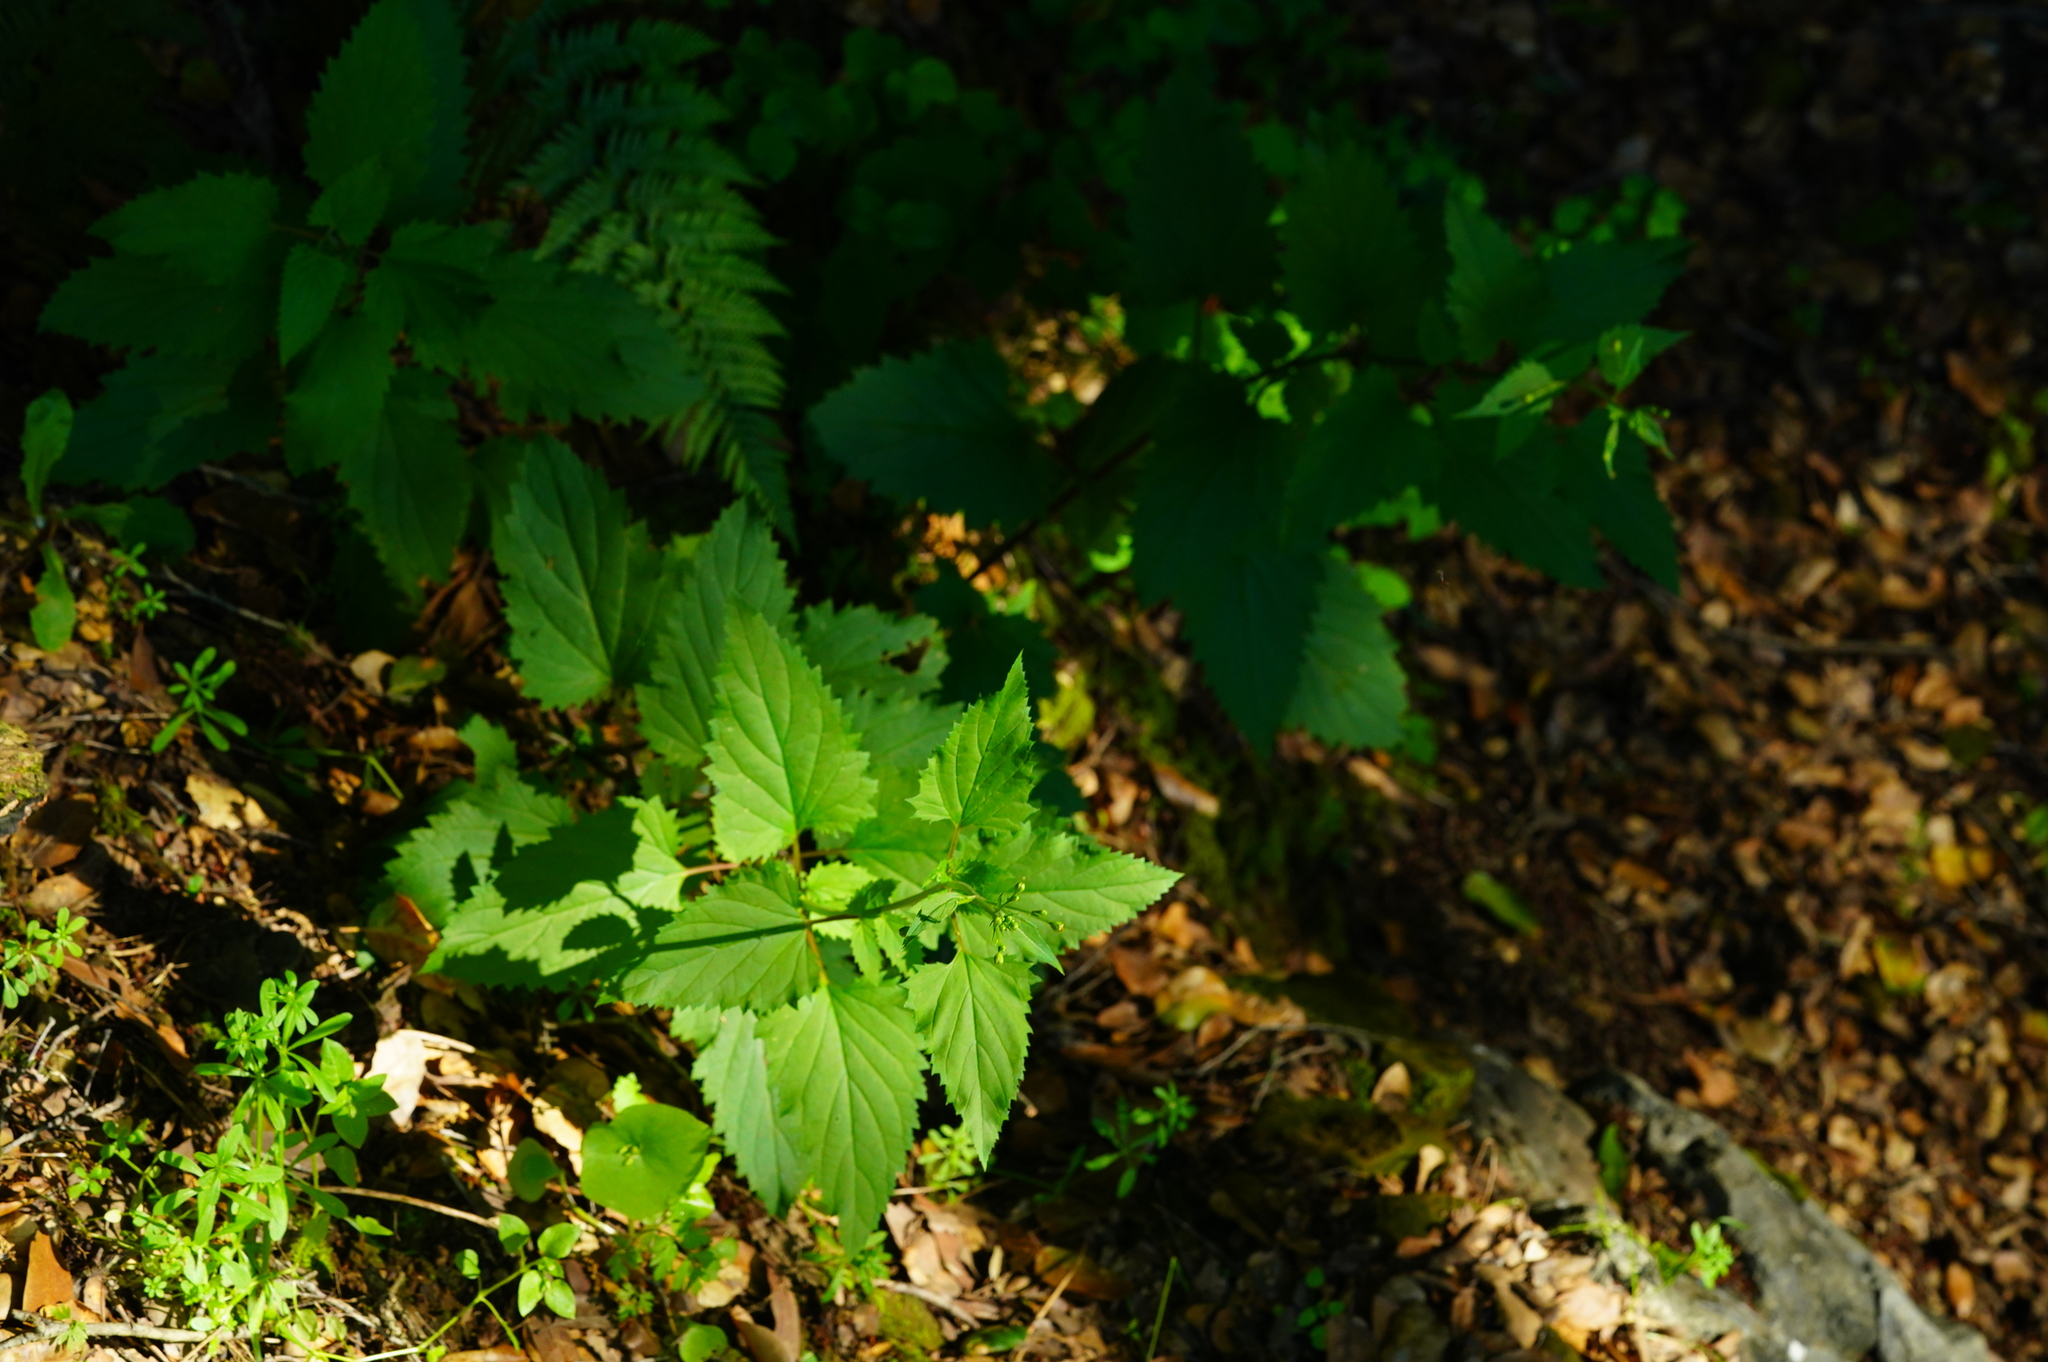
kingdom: Plantae
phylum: Tracheophyta
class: Magnoliopsida
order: Lamiales
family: Scrophulariaceae
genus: Scrophularia
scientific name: Scrophularia californica
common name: California figwort
